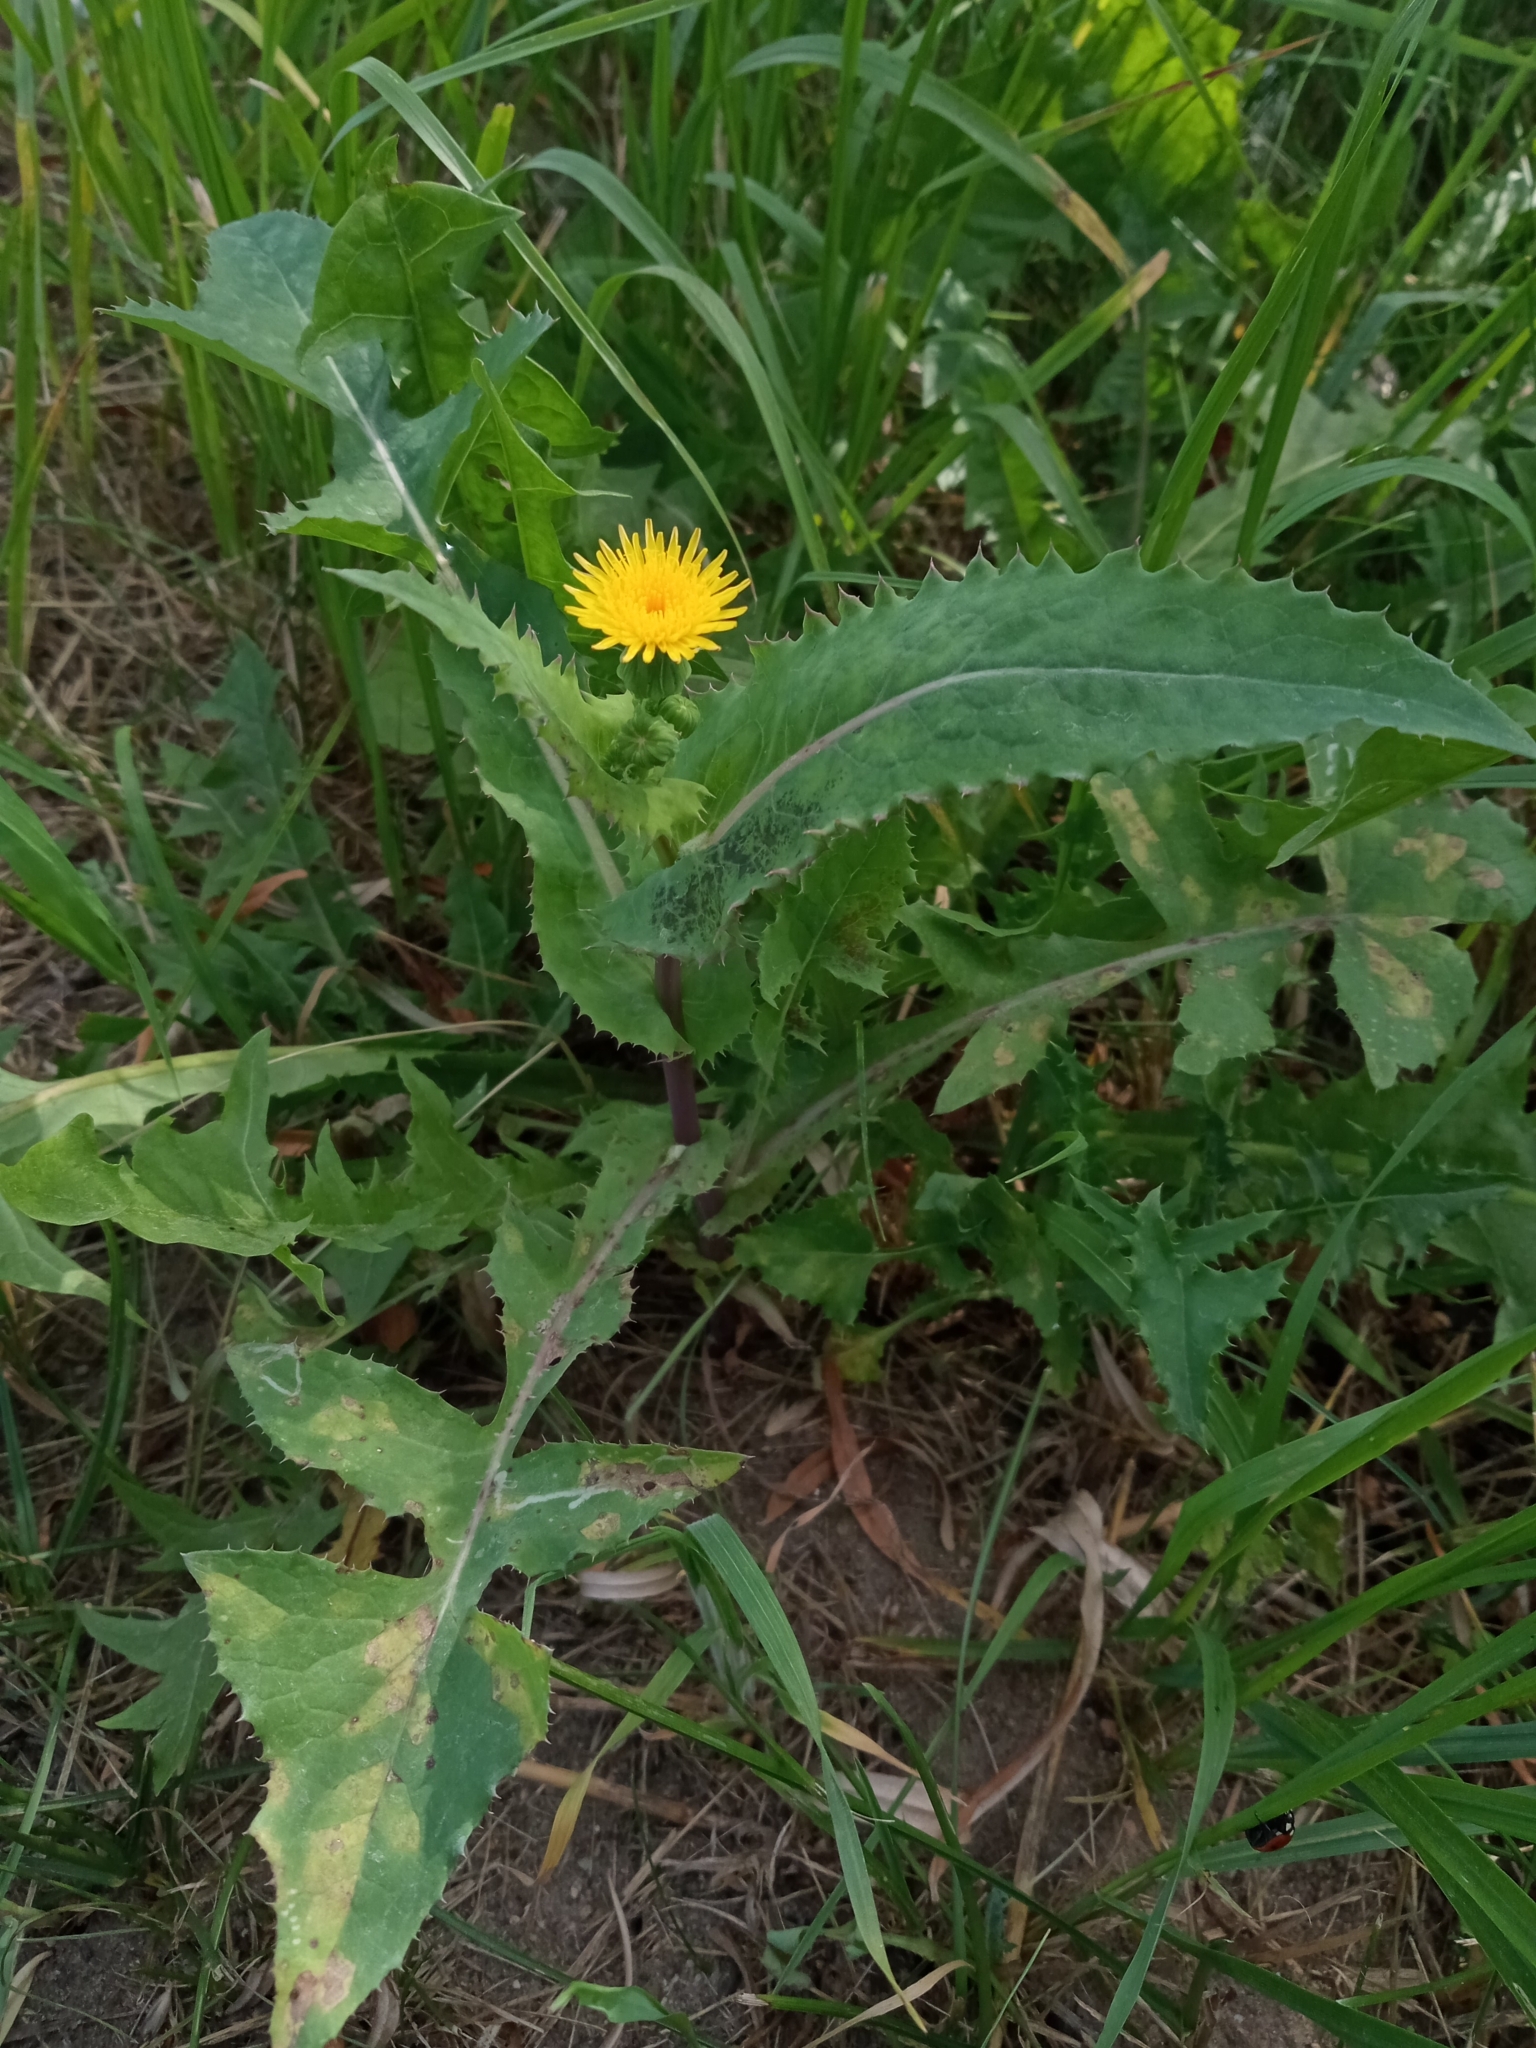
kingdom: Plantae
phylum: Tracheophyta
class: Magnoliopsida
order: Asterales
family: Asteraceae
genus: Sonchus
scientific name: Sonchus oleraceus
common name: Common sowthistle
